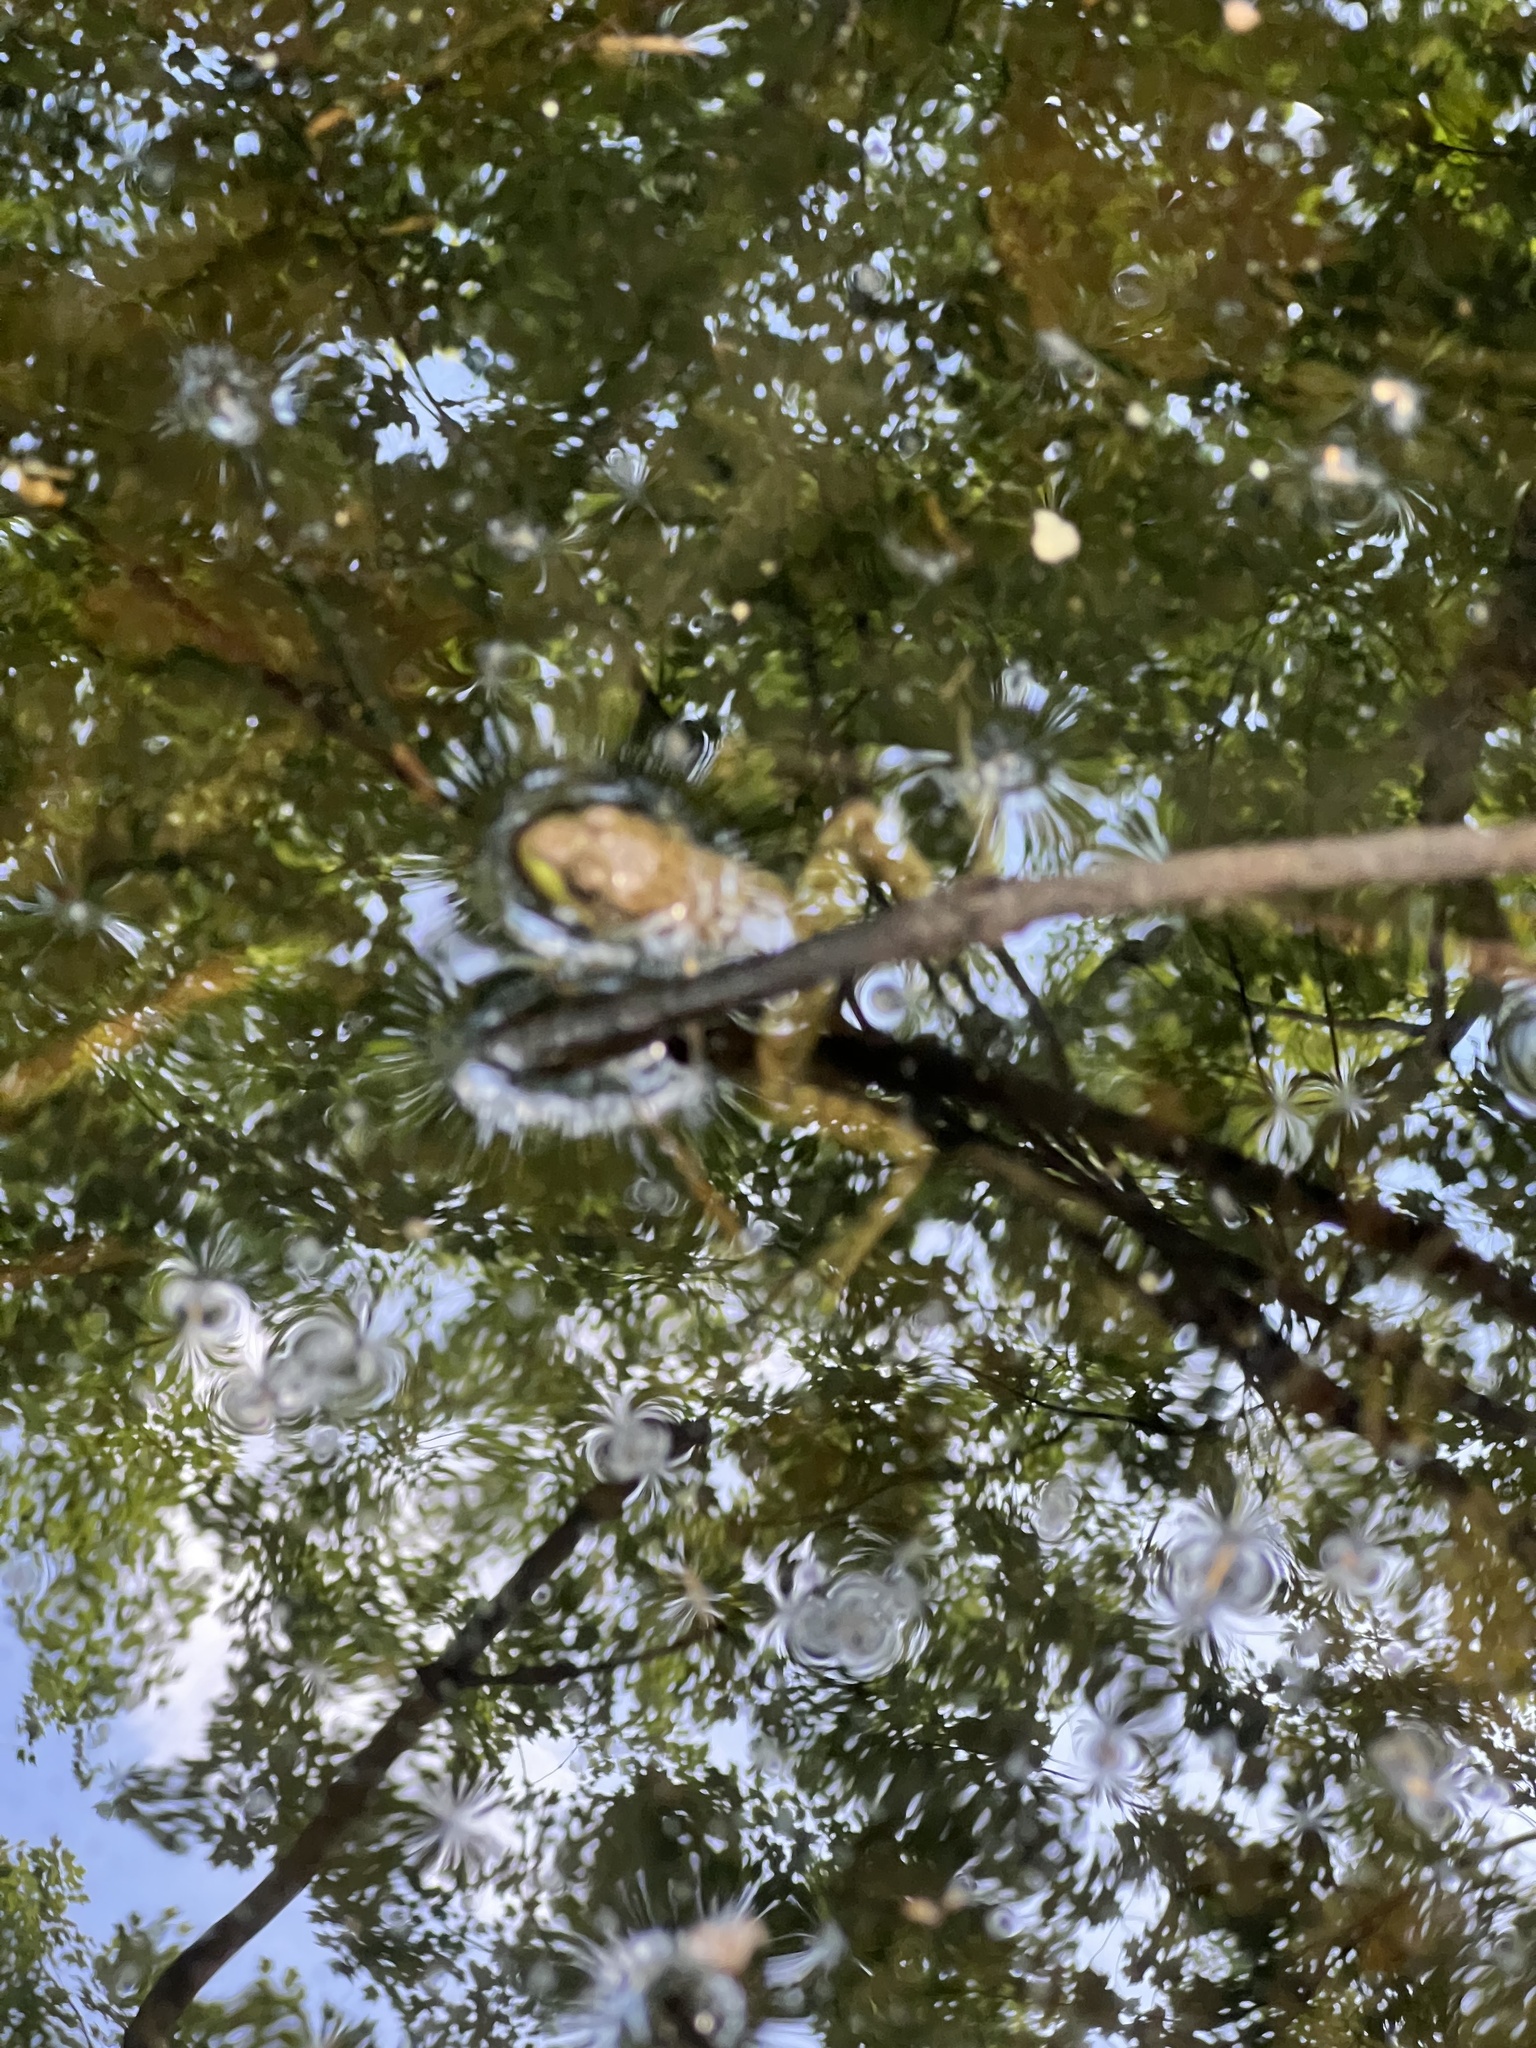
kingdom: Animalia
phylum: Chordata
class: Amphibia
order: Anura
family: Ranidae
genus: Lithobates
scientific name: Lithobates clamitans
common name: Green frog
